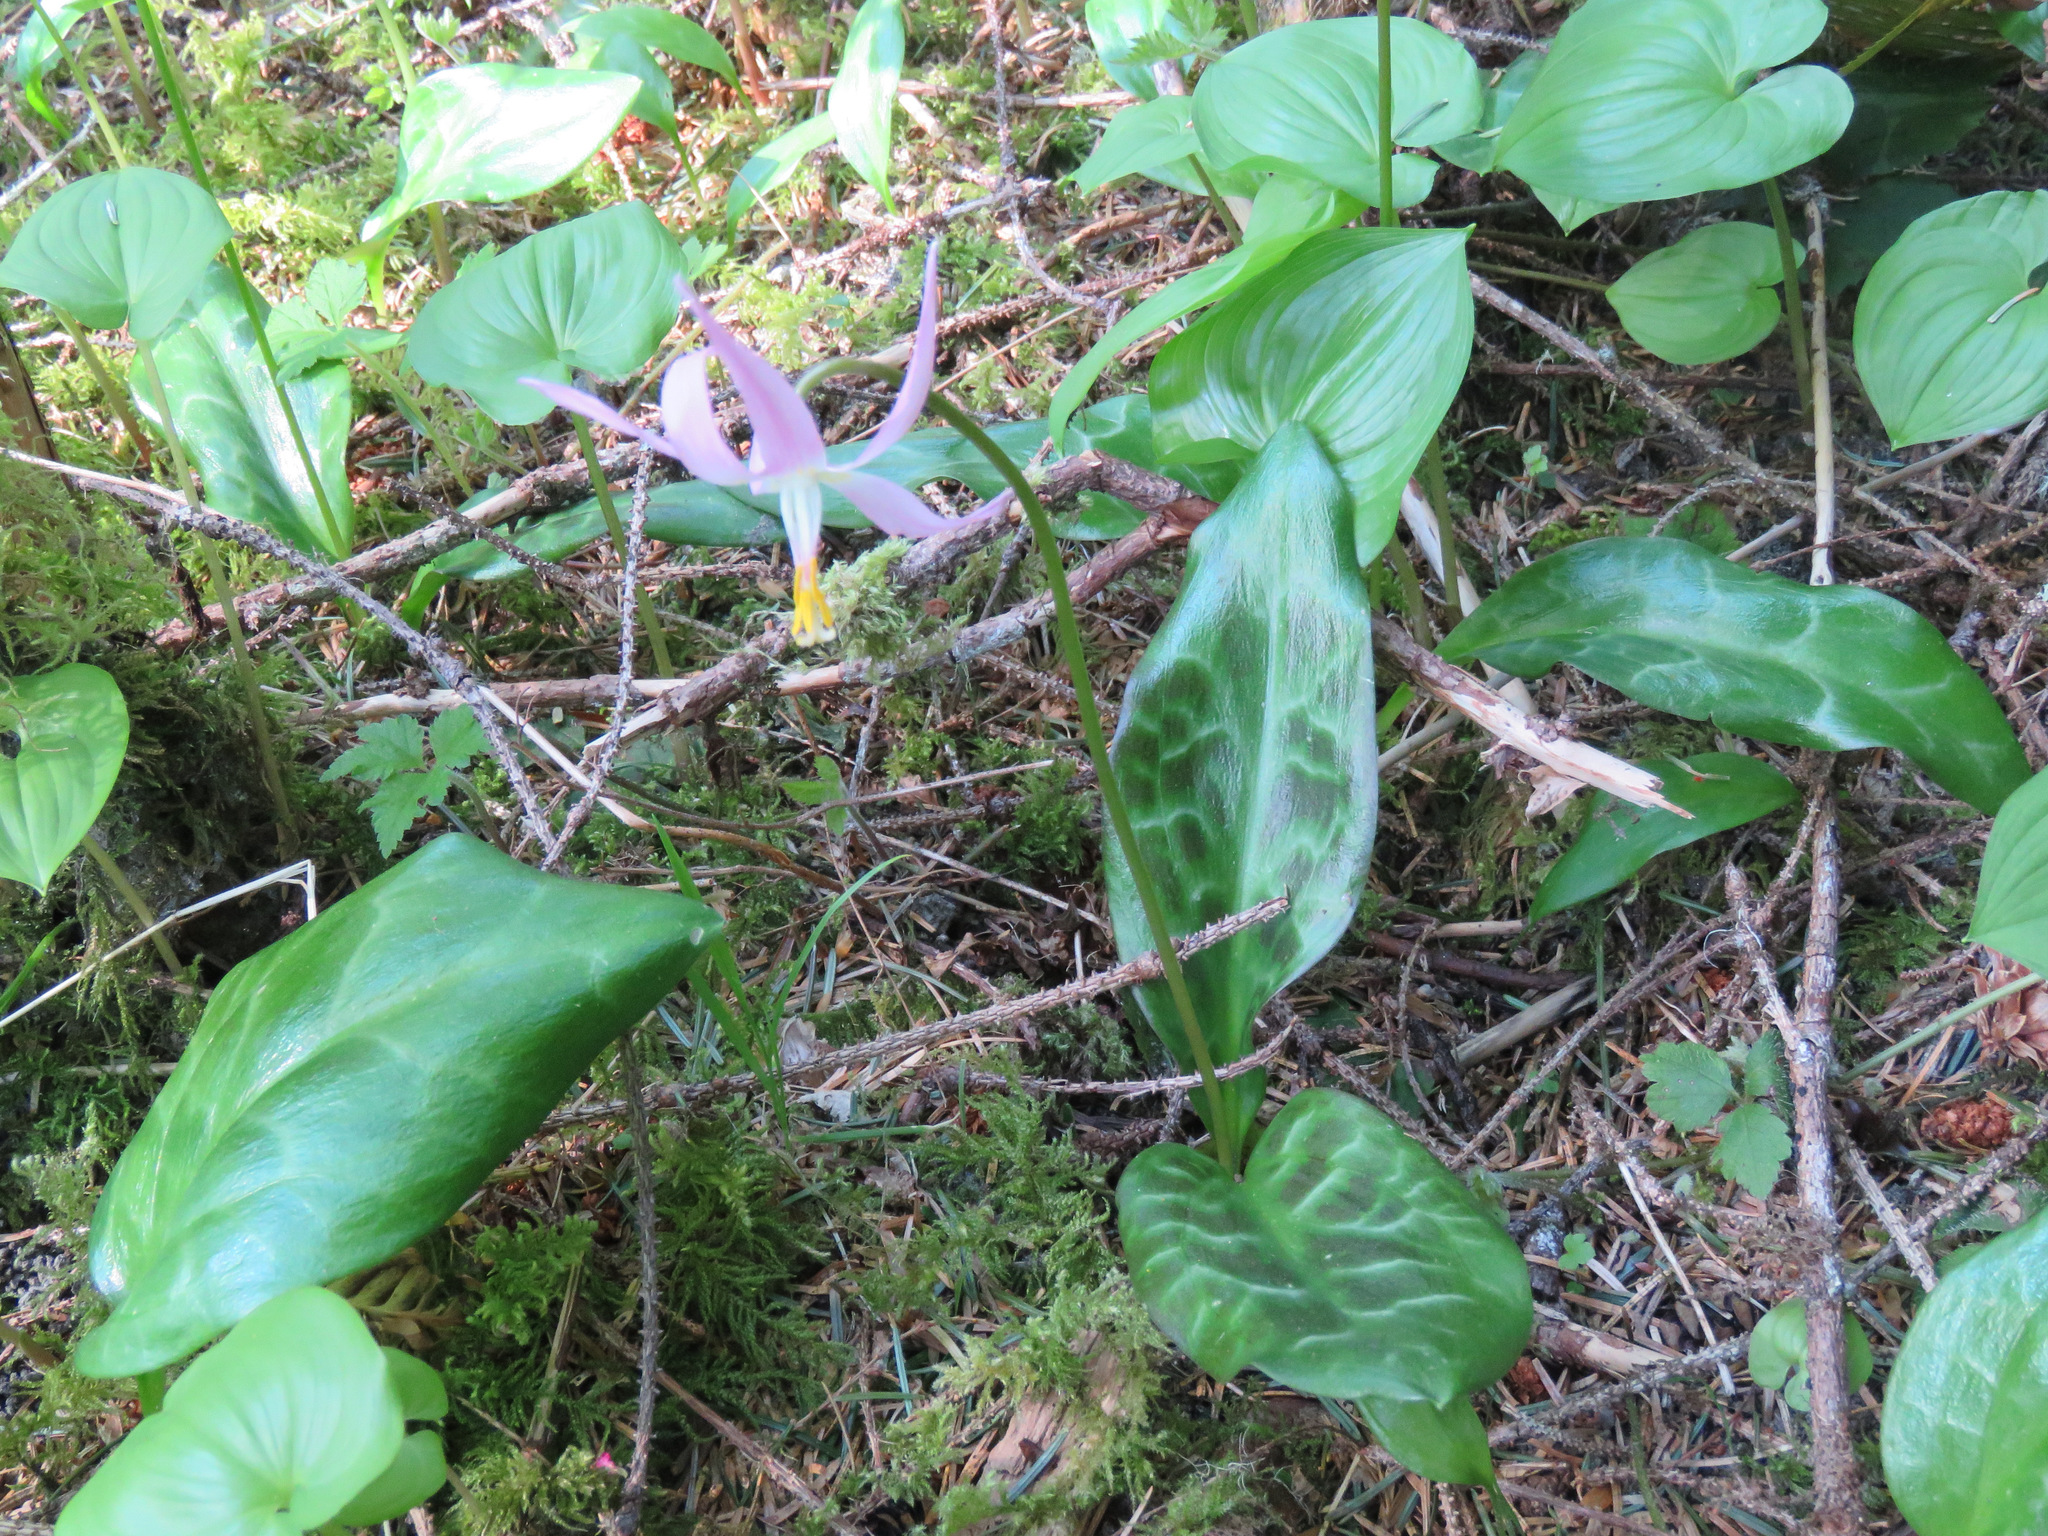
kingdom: Plantae
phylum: Tracheophyta
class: Liliopsida
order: Liliales
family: Liliaceae
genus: Erythronium
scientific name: Erythronium revolutum
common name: Pink fawn-lily
